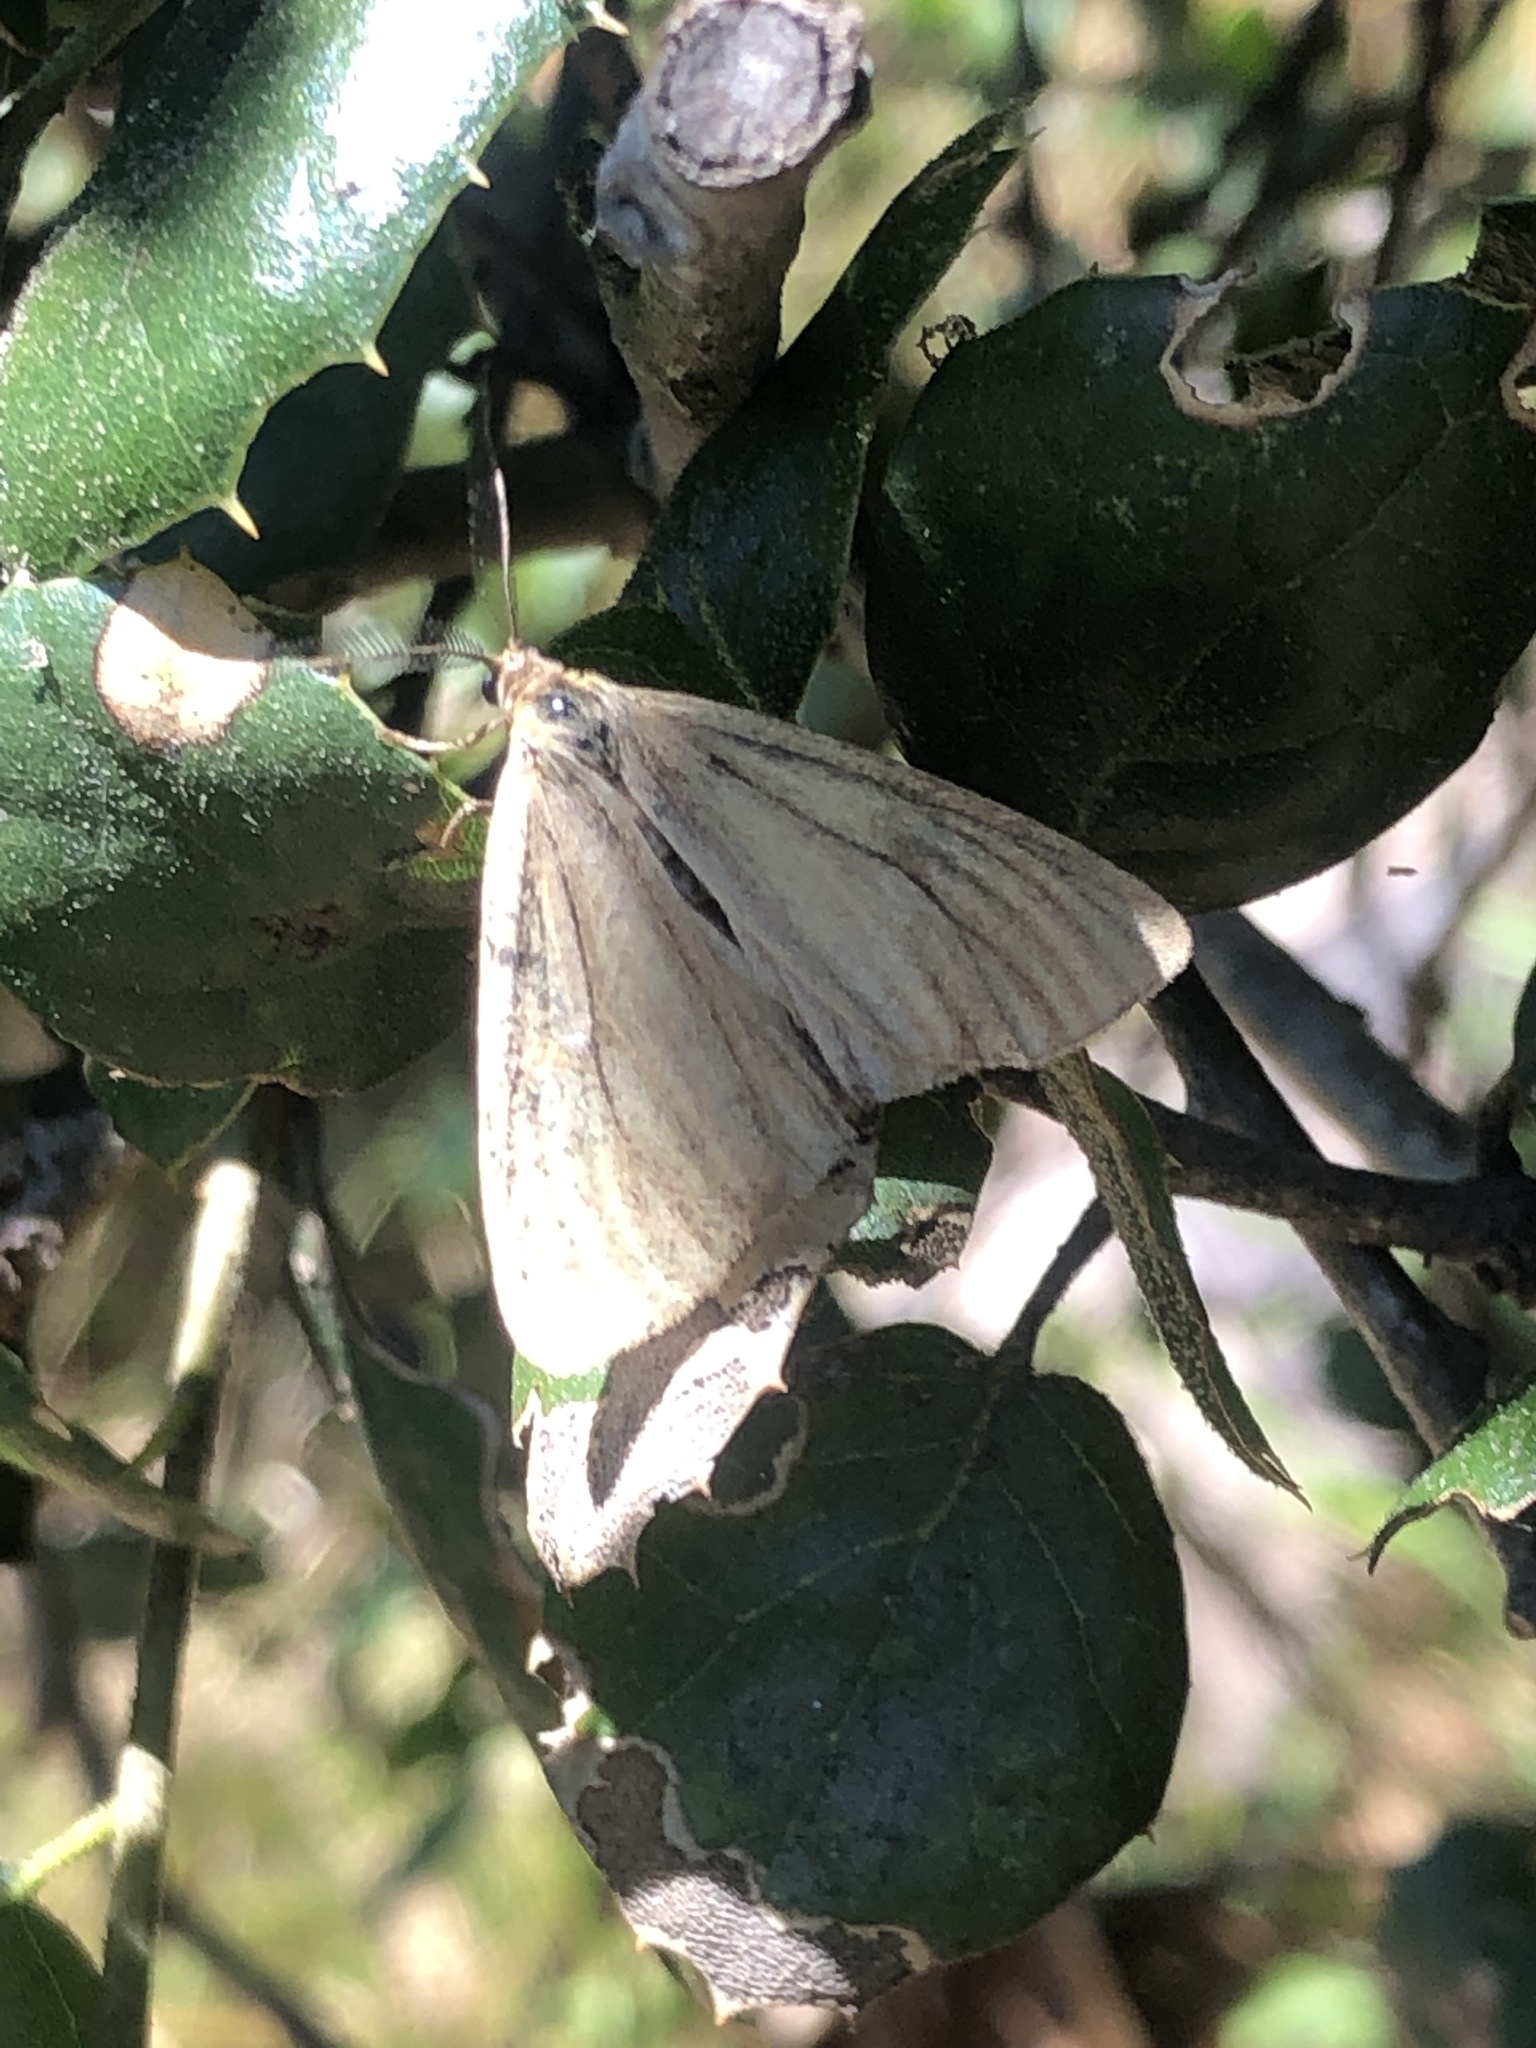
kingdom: Animalia
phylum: Arthropoda
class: Insecta
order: Lepidoptera
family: Notodontidae
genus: Phryganidia
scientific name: Phryganidia californica
